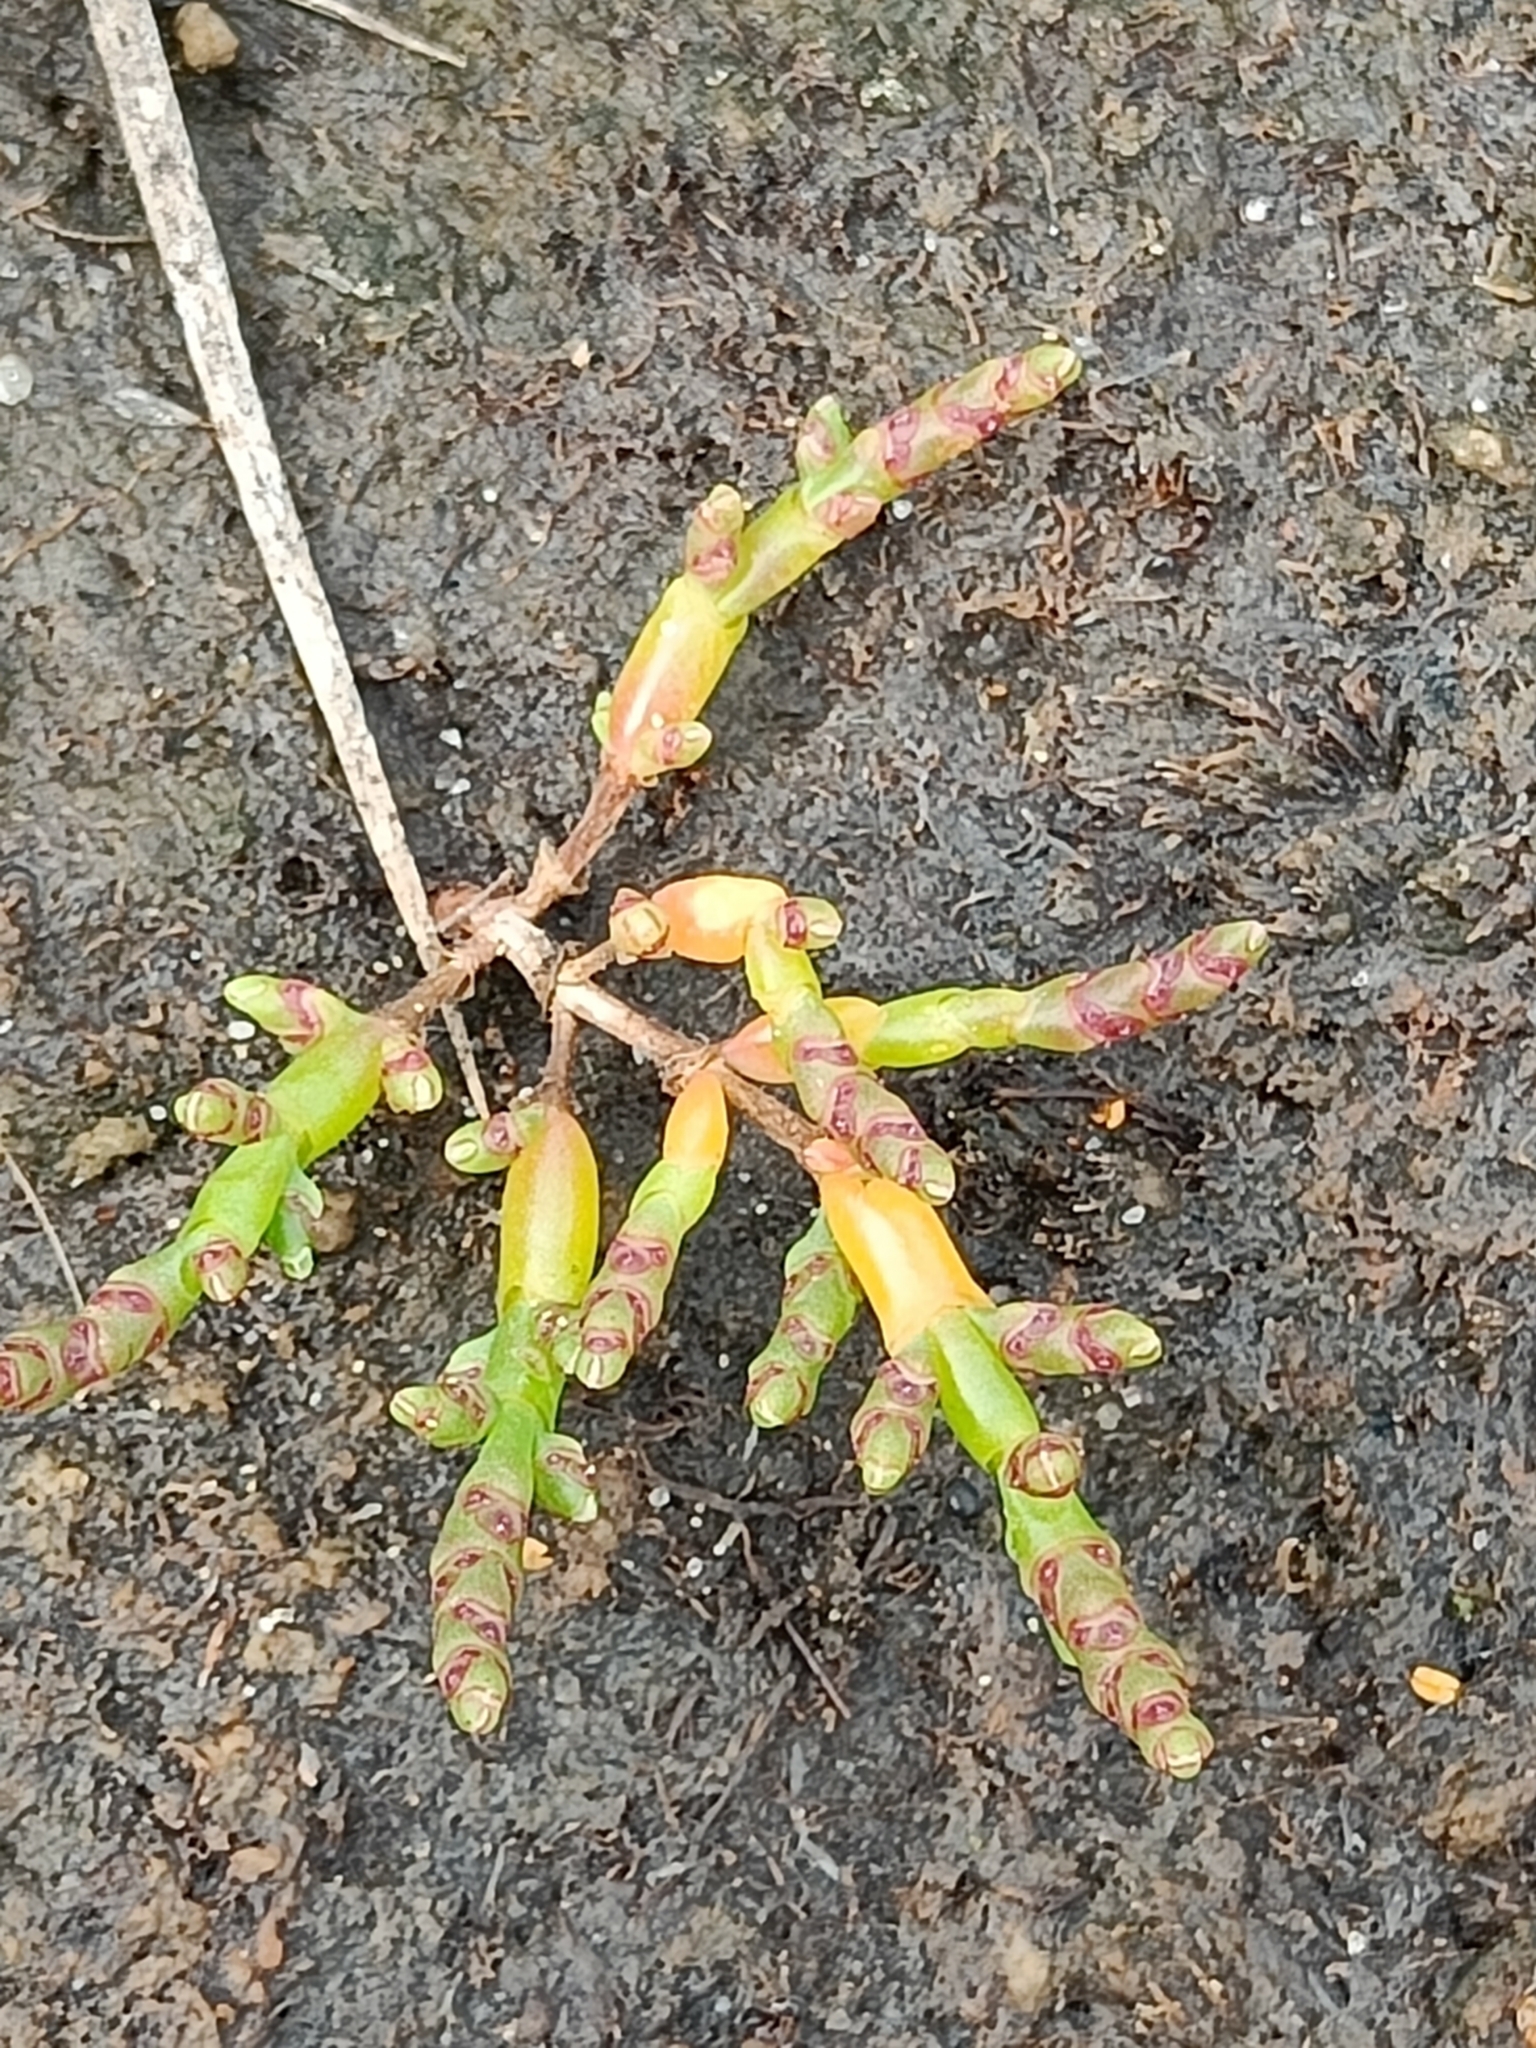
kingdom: Plantae
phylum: Tracheophyta
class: Magnoliopsida
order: Caryophyllales
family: Amaranthaceae
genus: Salicornia
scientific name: Salicornia europaea
